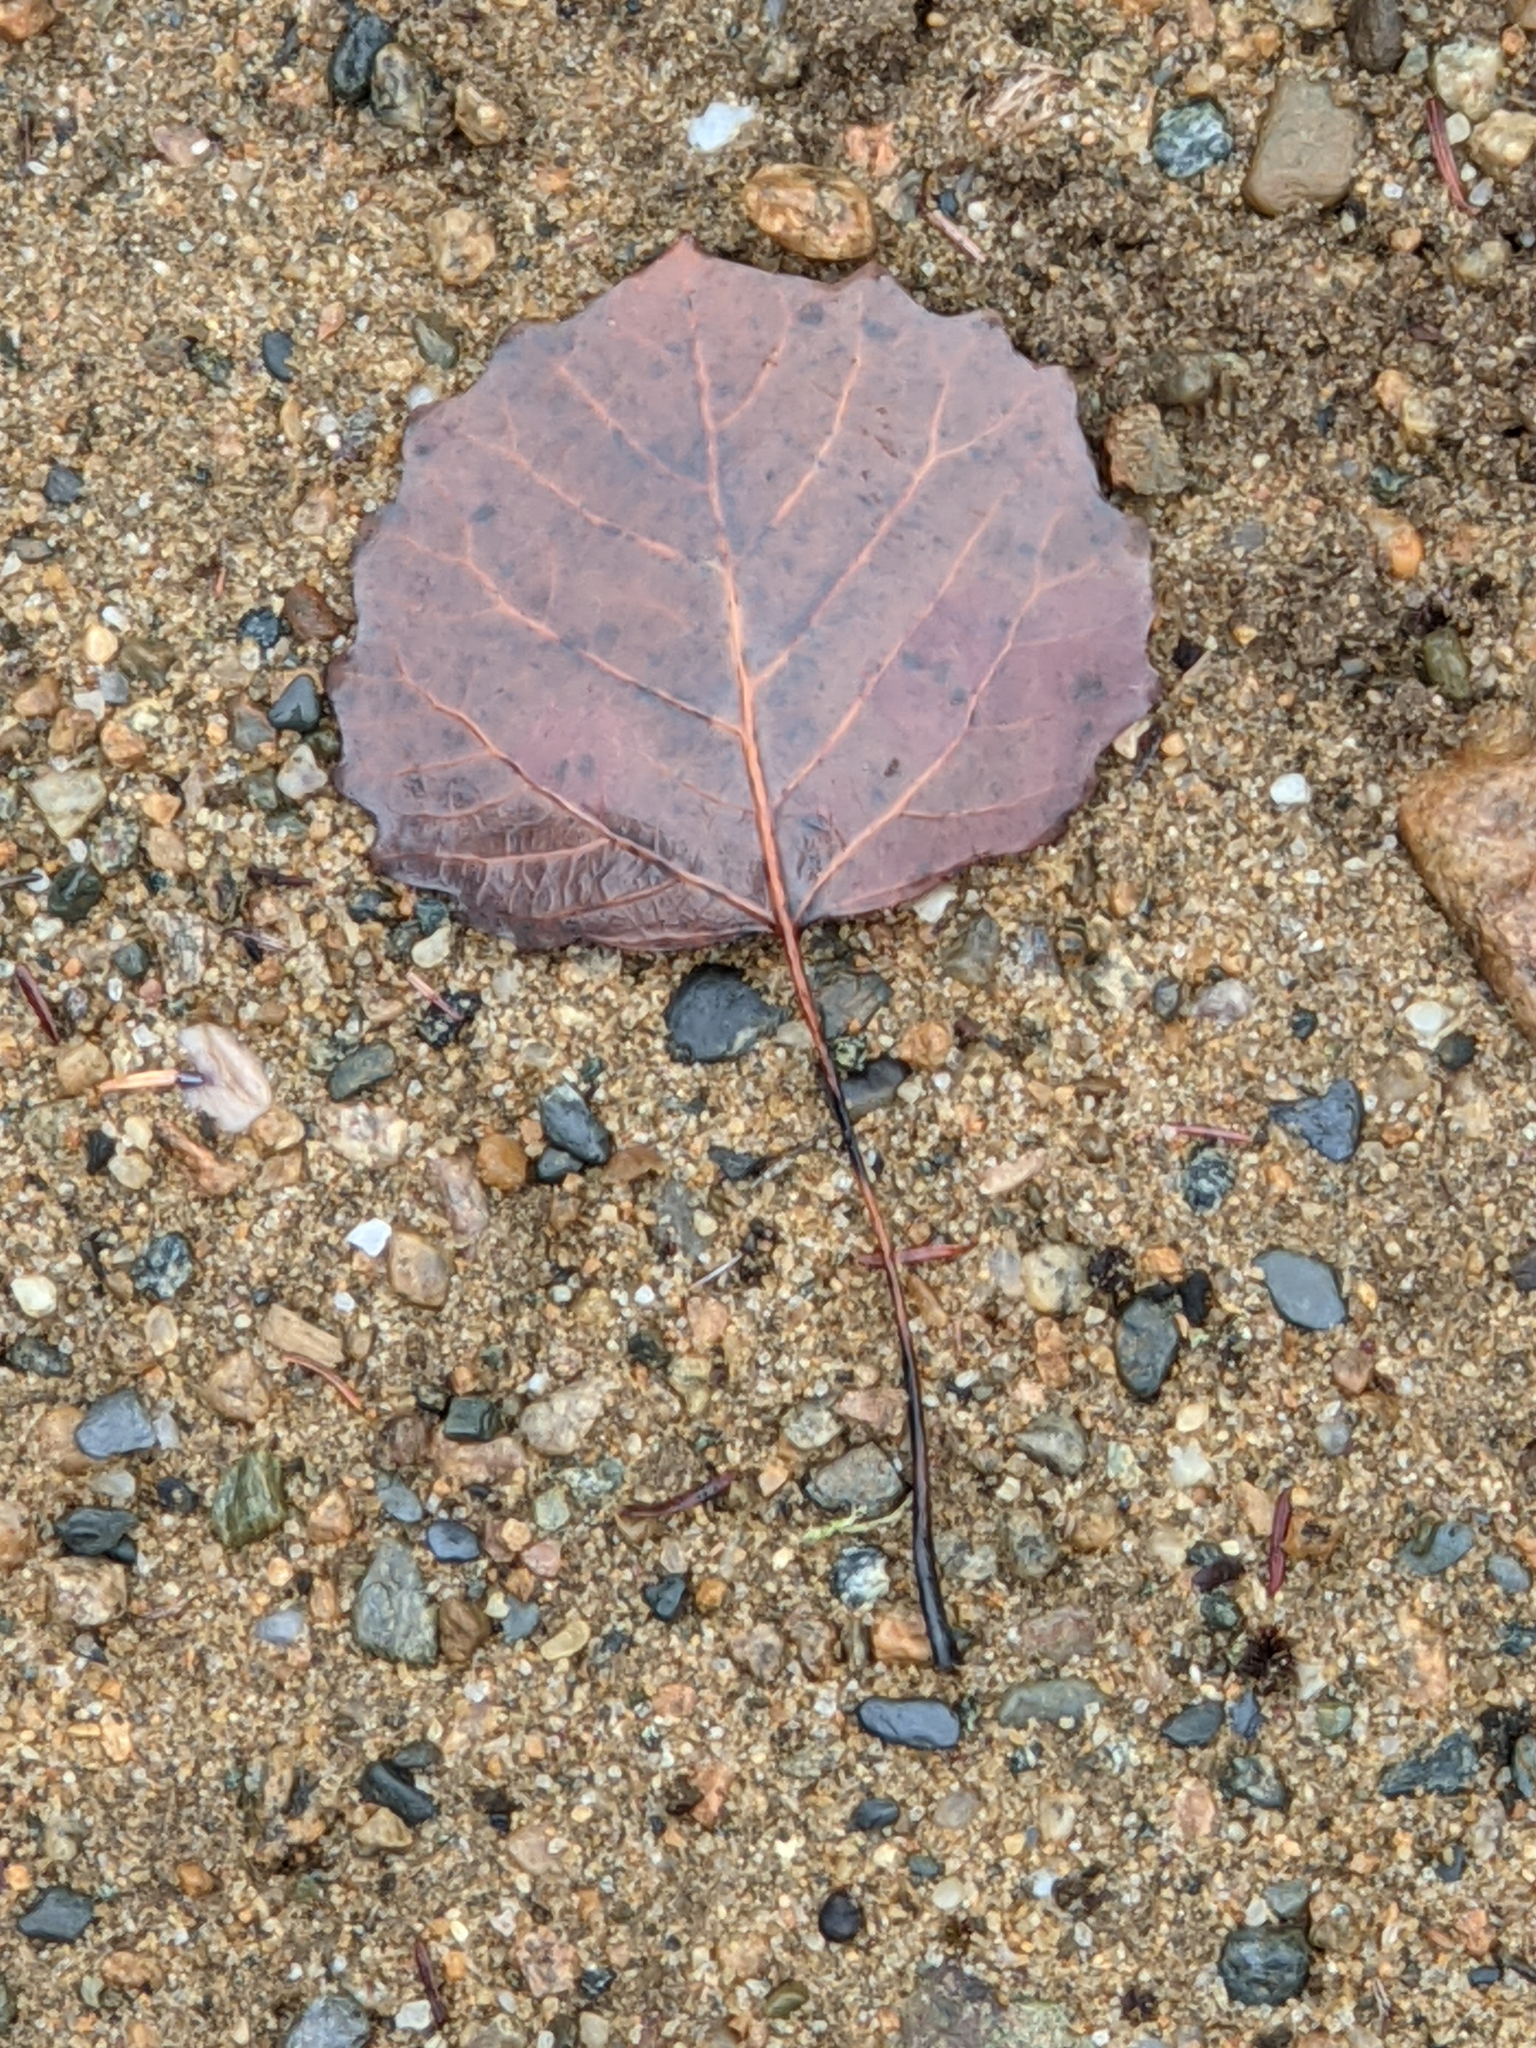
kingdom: Plantae
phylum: Tracheophyta
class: Magnoliopsida
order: Malpighiales
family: Salicaceae
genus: Populus
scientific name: Populus grandidentata
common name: Bigtooth aspen
